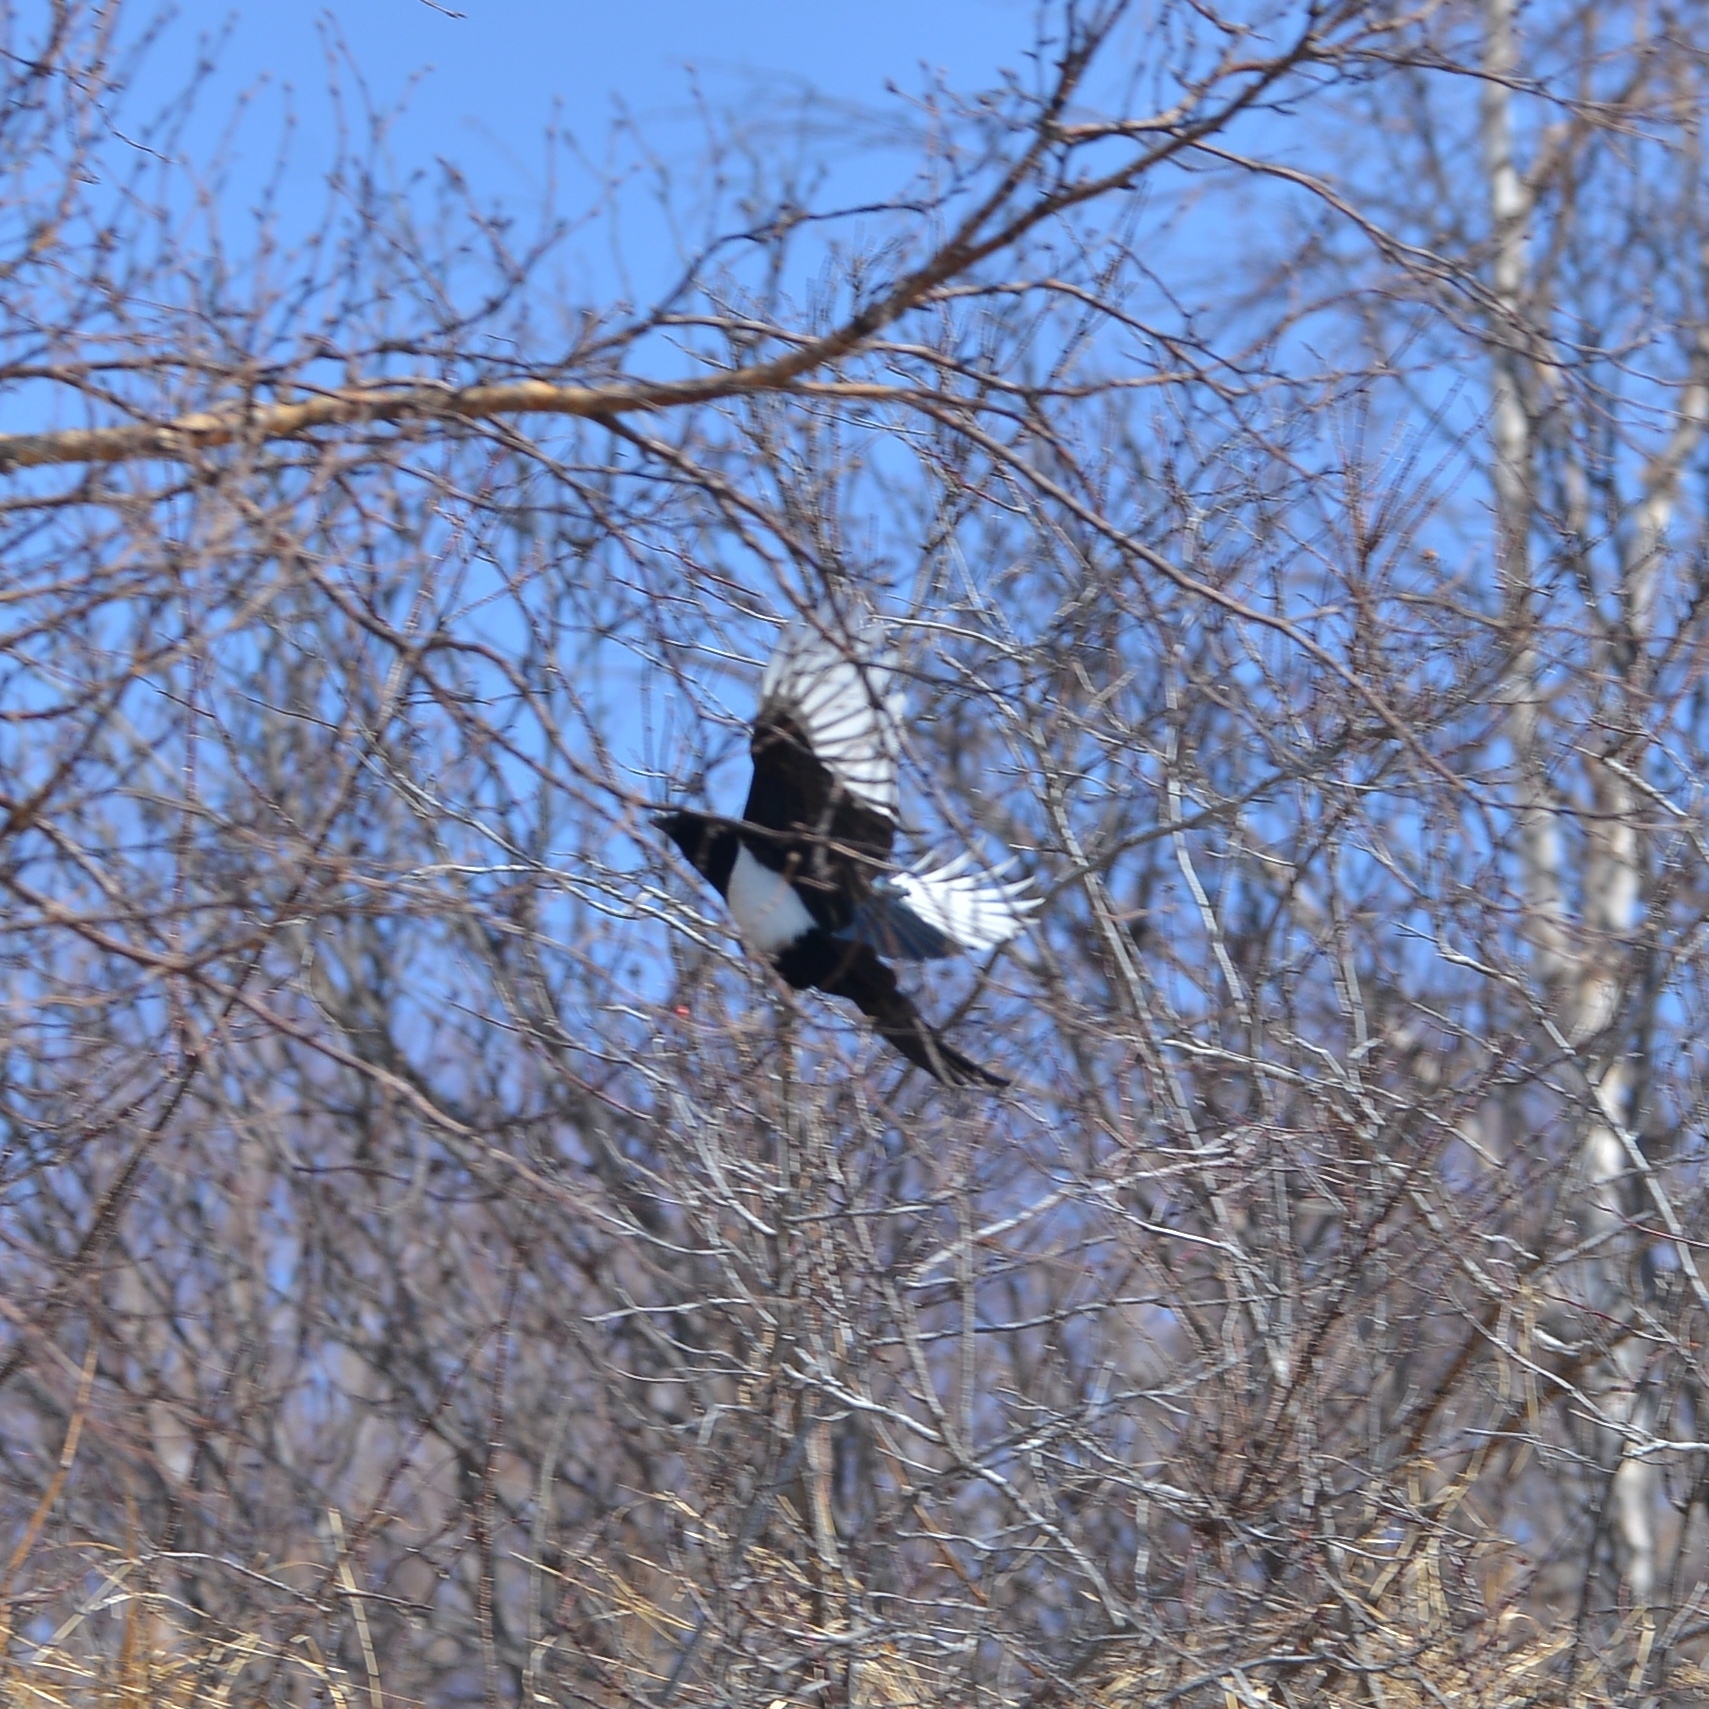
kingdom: Animalia
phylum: Chordata
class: Aves
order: Passeriformes
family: Corvidae
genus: Pica
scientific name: Pica pica
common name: Eurasian magpie
